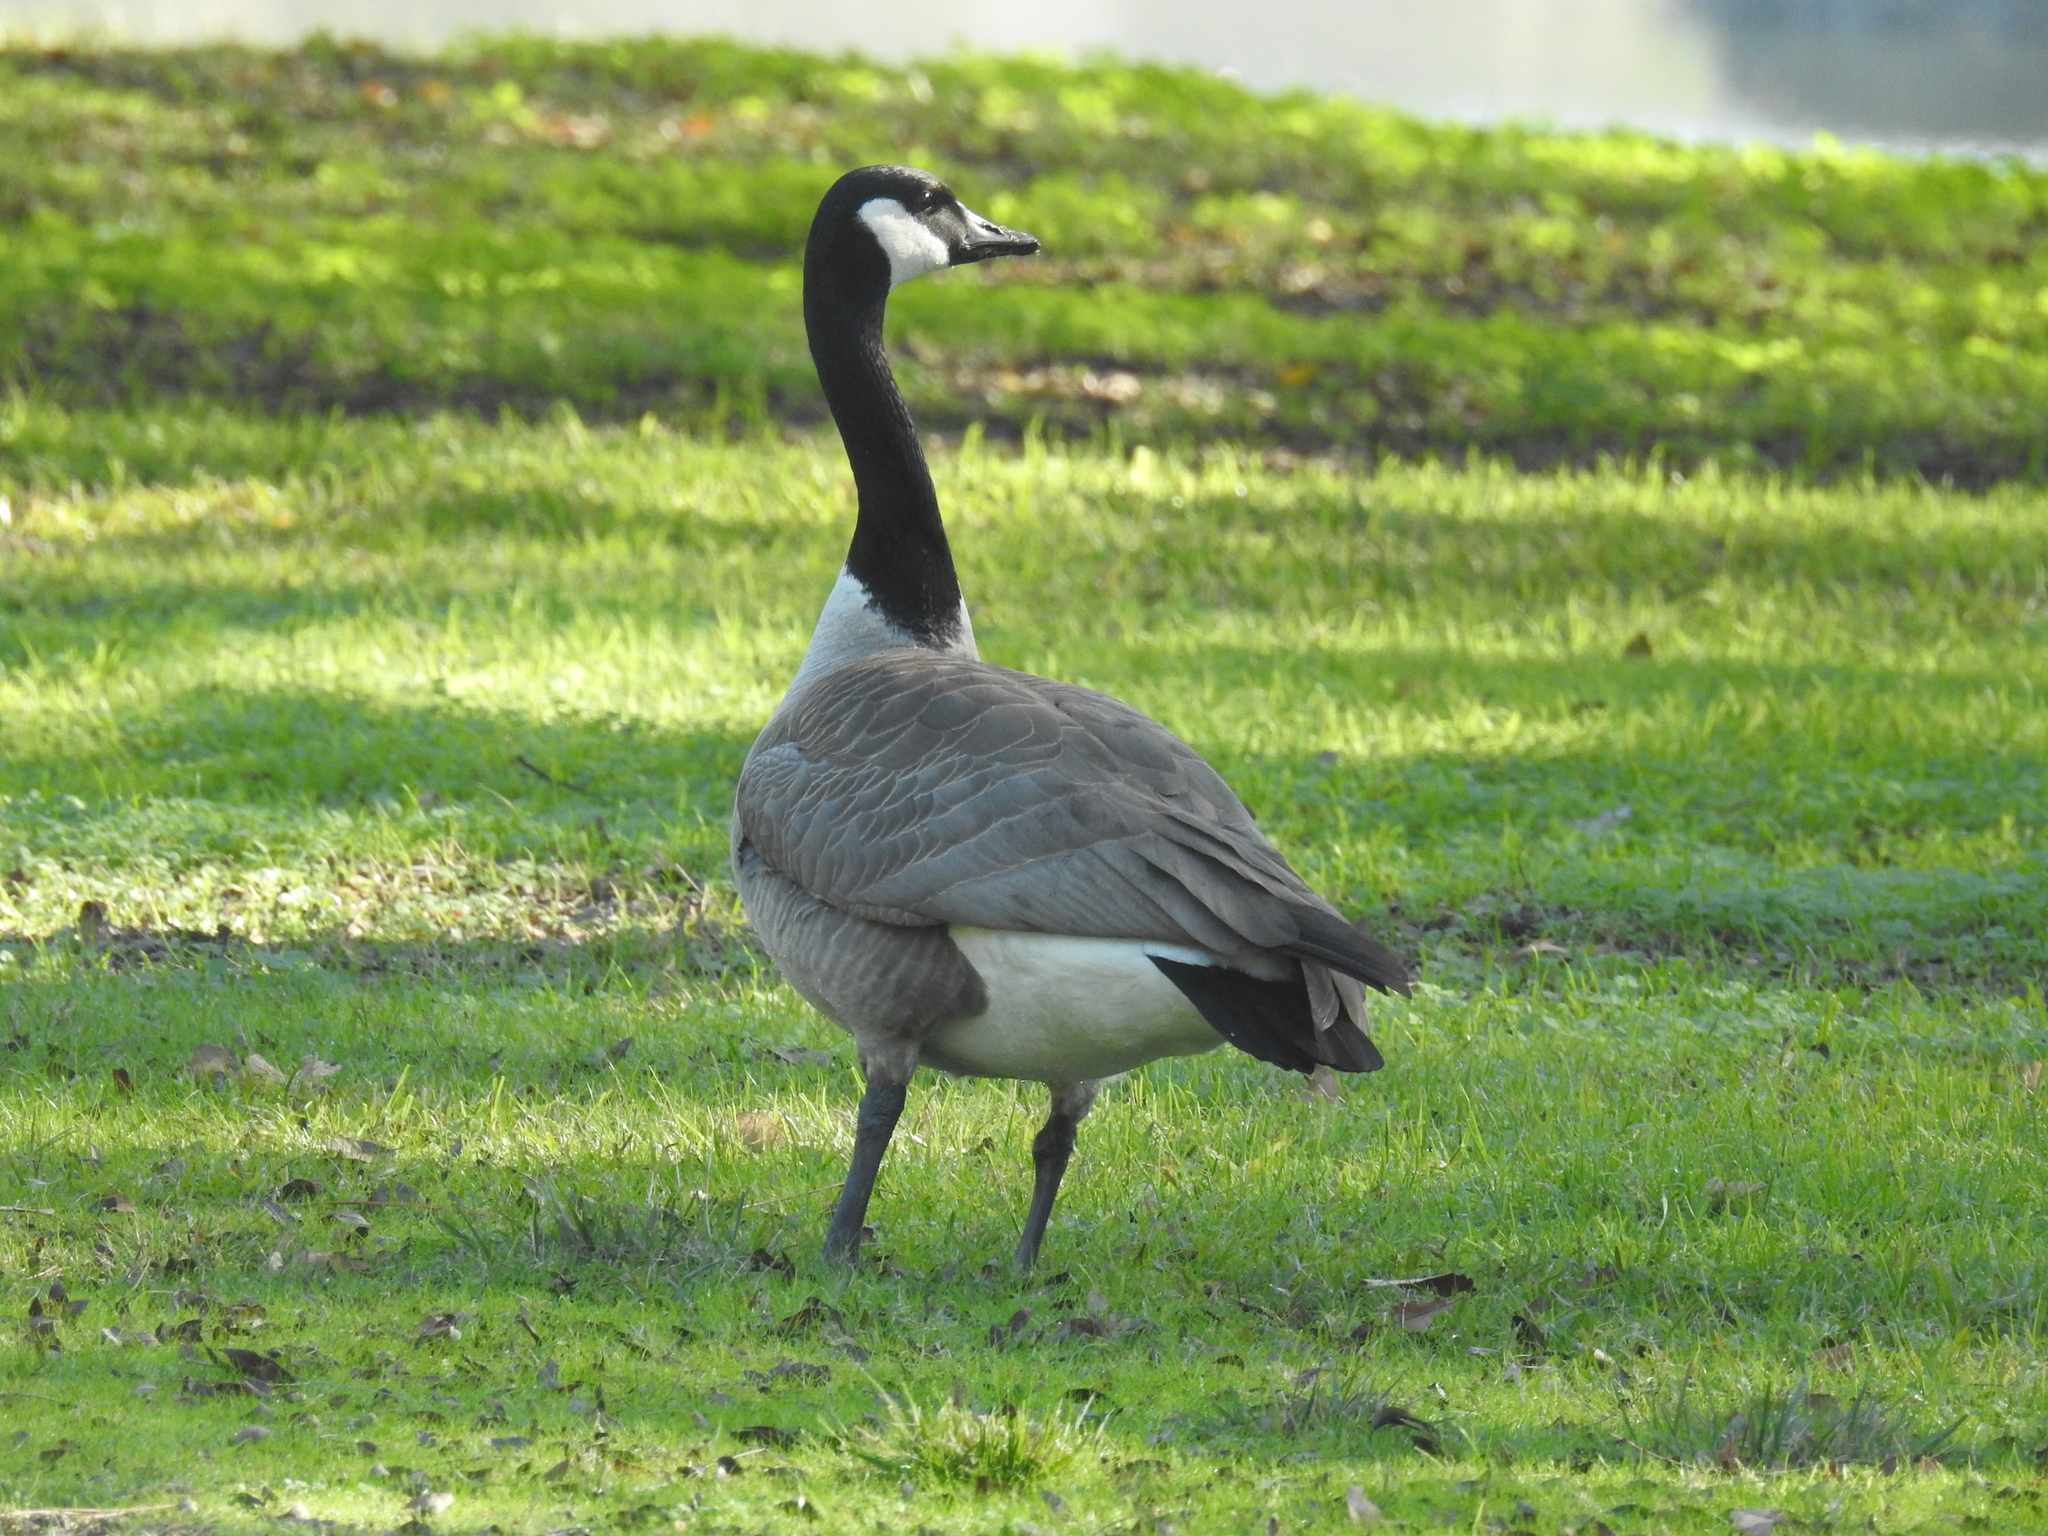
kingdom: Animalia
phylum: Chordata
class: Aves
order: Anseriformes
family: Anatidae
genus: Branta
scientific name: Branta canadensis
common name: Canada goose
